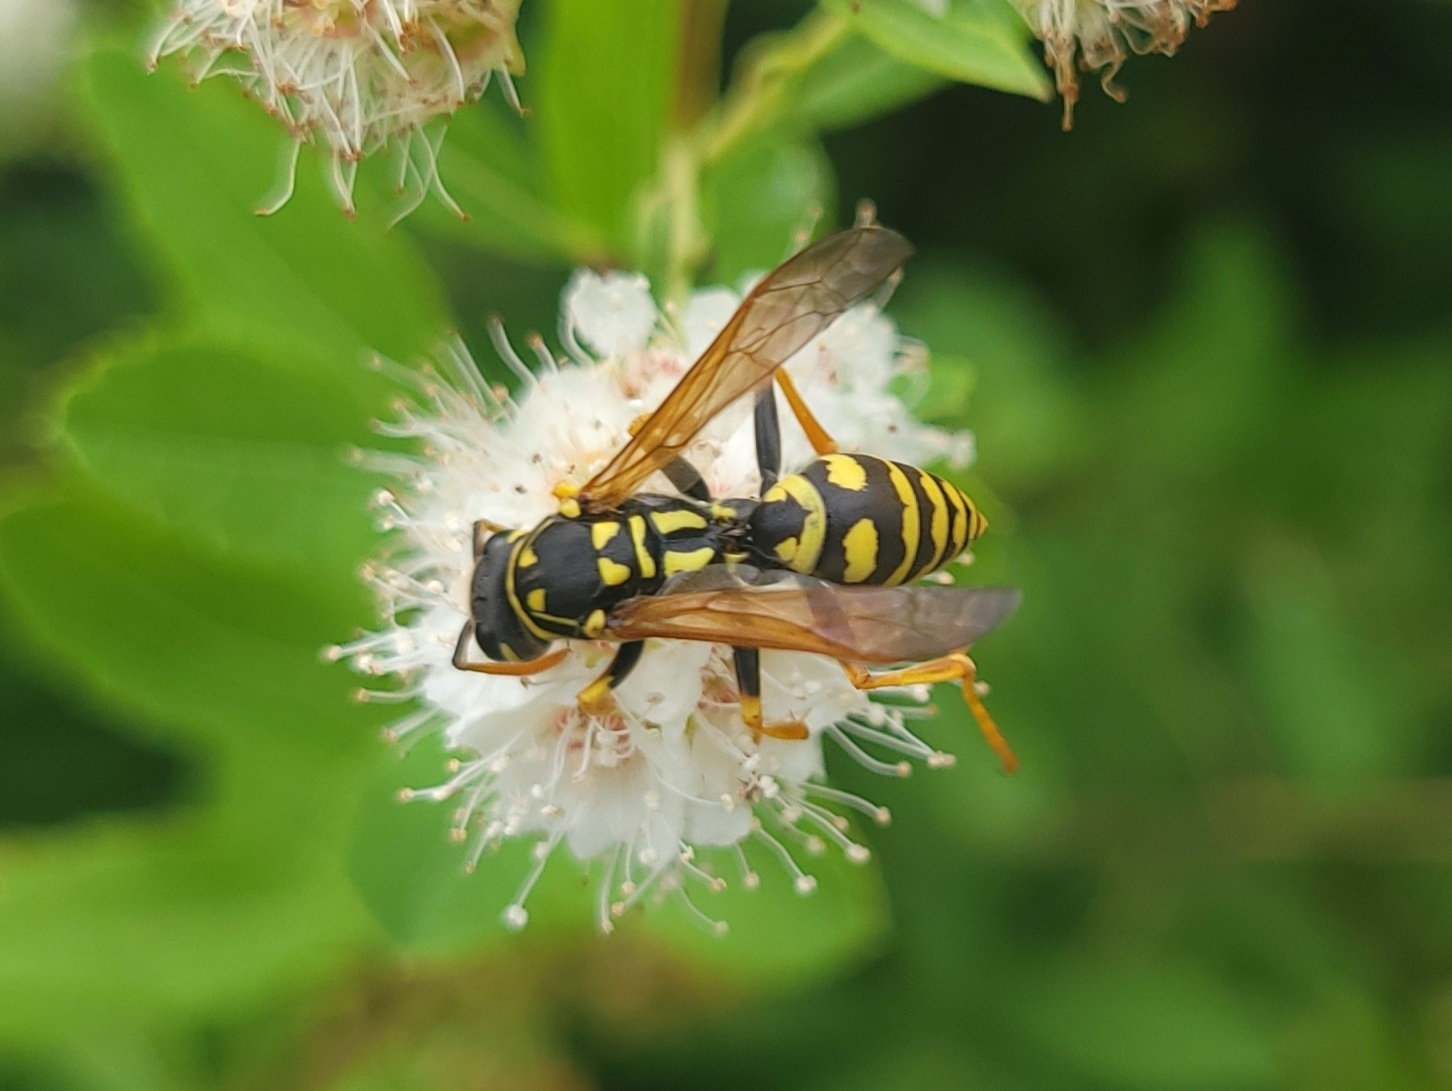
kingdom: Animalia
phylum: Arthropoda
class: Insecta
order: Hymenoptera
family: Eumenidae
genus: Polistes
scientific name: Polistes dominula
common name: Paper wasp
